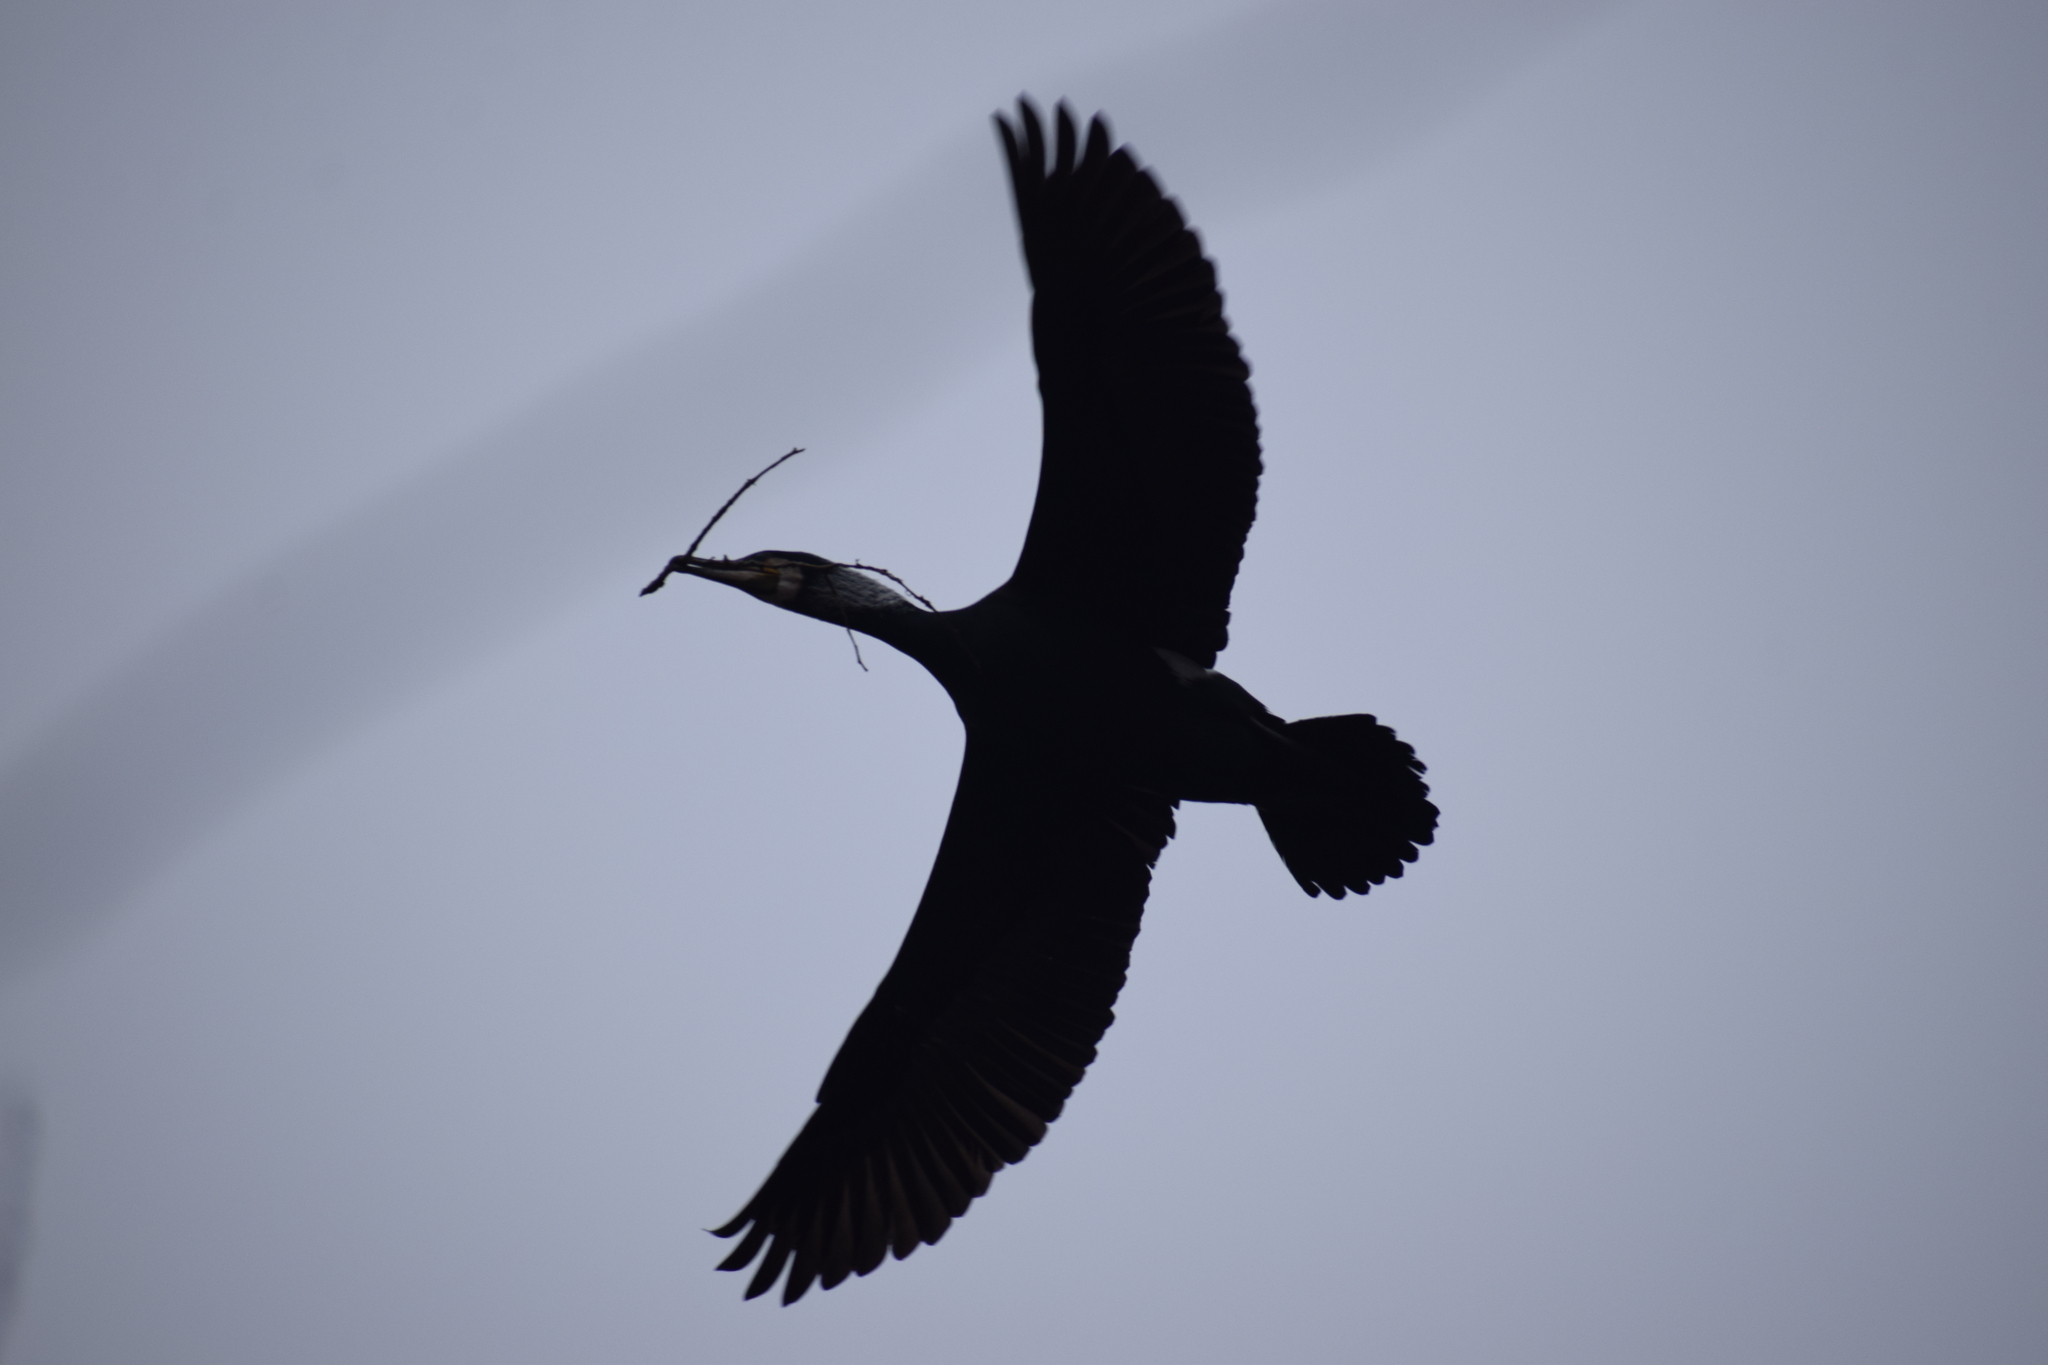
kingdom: Animalia
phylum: Chordata
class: Aves
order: Suliformes
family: Phalacrocoracidae
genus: Phalacrocorax
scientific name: Phalacrocorax carbo
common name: Great cormorant
